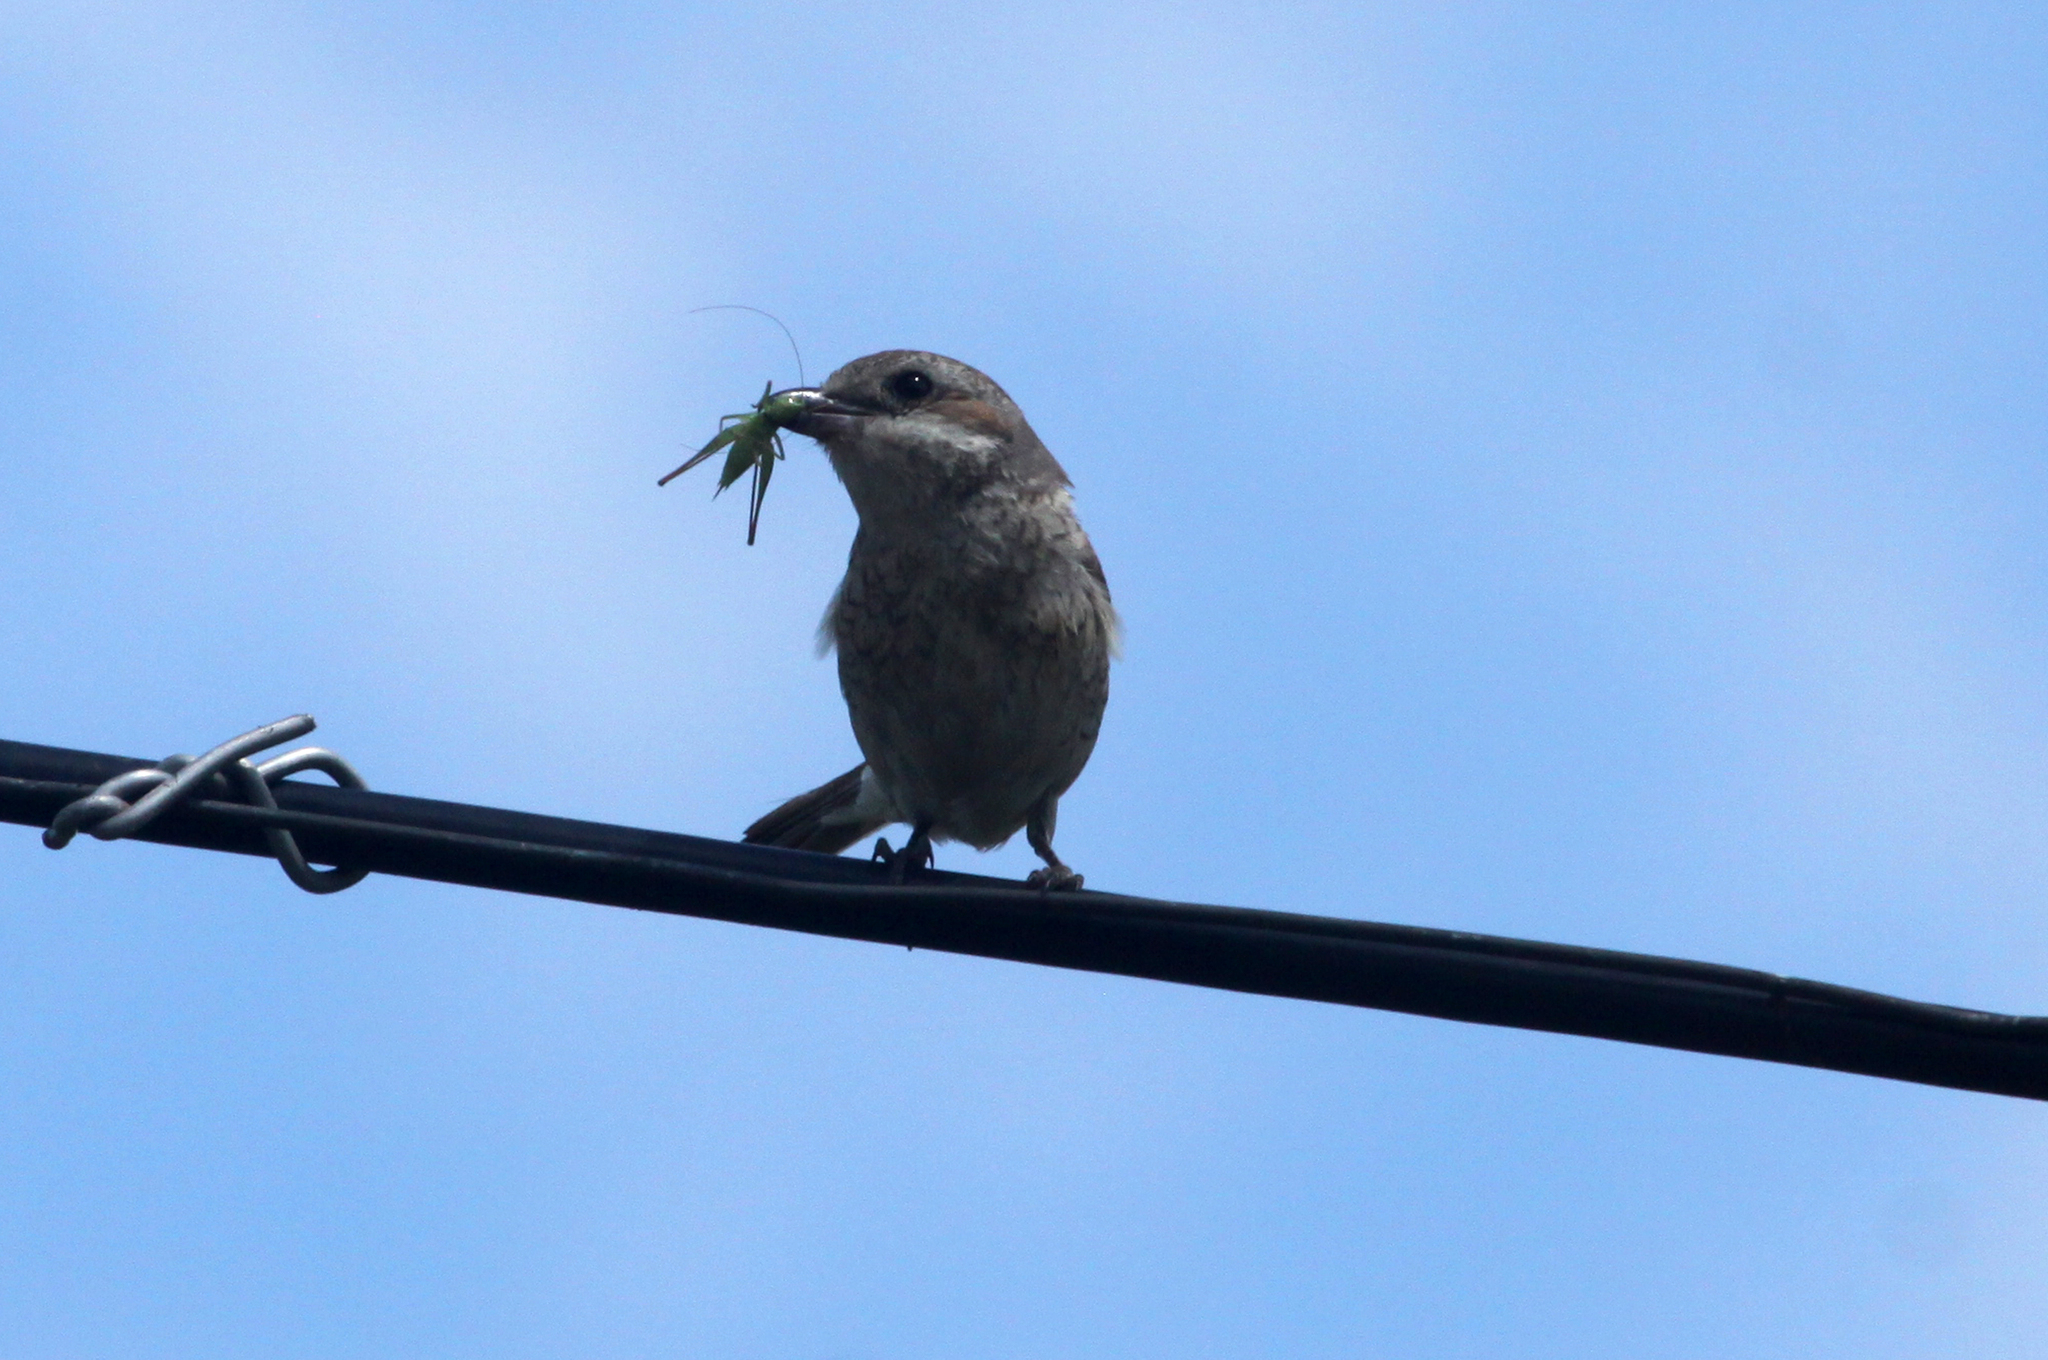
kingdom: Animalia
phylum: Chordata
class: Aves
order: Passeriformes
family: Laniidae
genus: Lanius
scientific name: Lanius collurio
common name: Red-backed shrike
